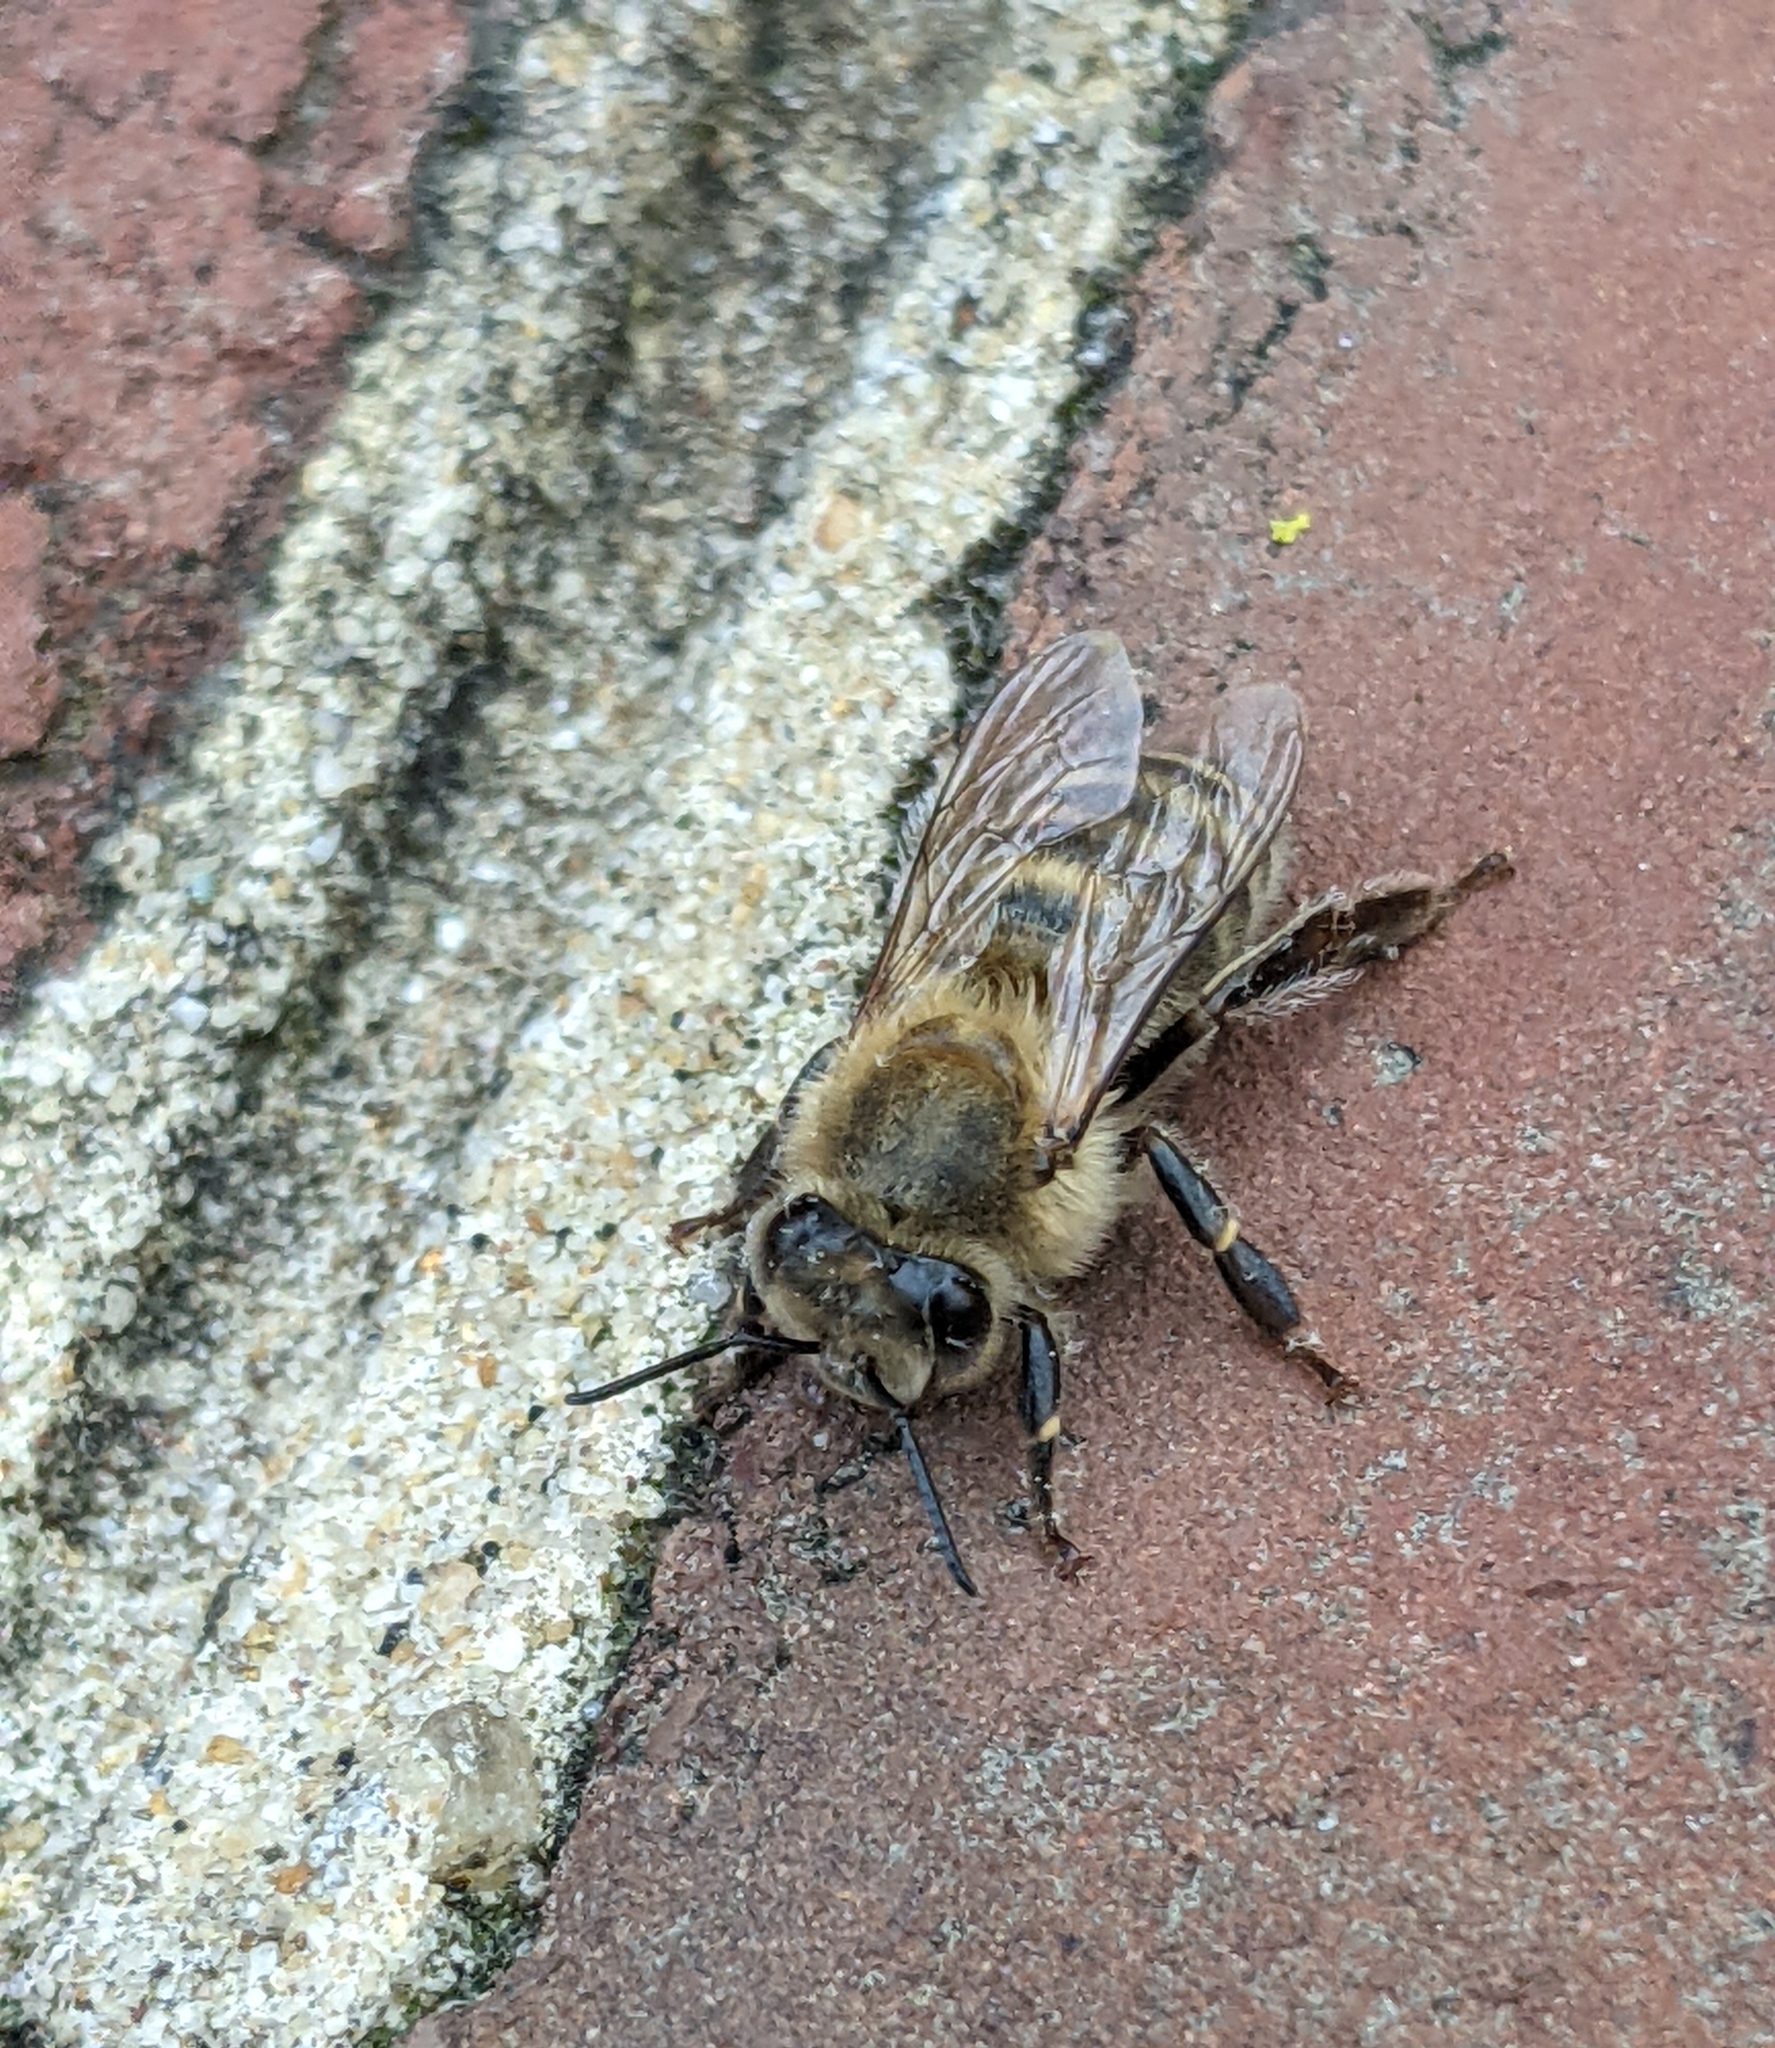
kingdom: Animalia
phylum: Arthropoda
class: Insecta
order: Hymenoptera
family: Apidae
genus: Apis
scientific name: Apis mellifera
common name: Honey bee
